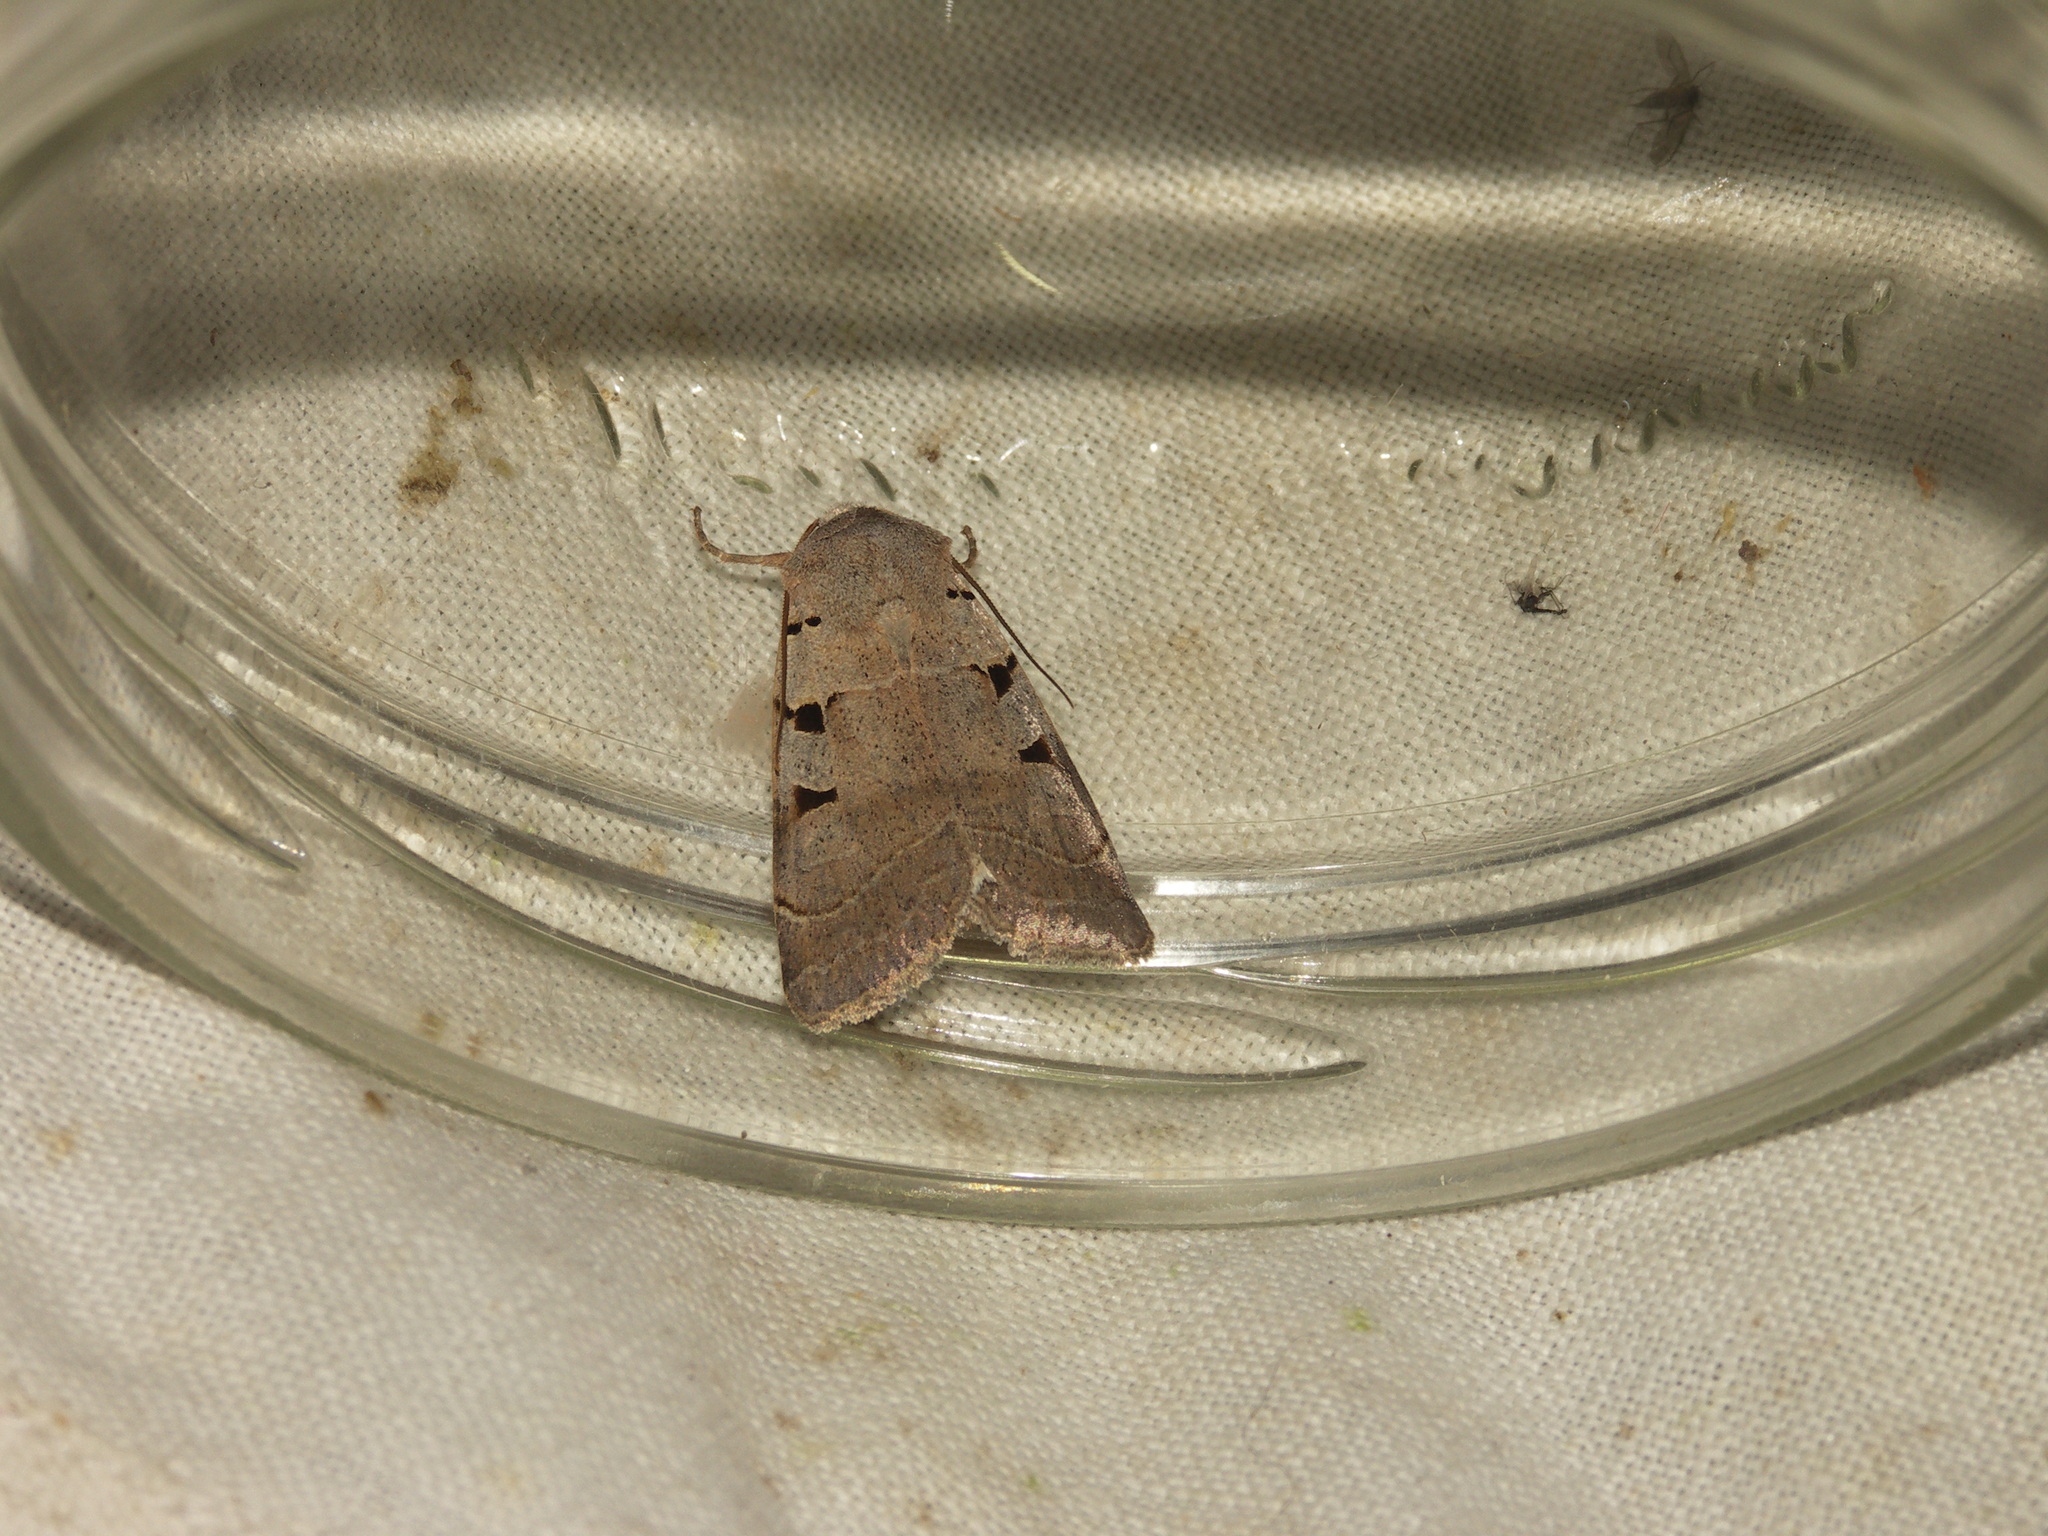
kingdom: Animalia
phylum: Arthropoda
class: Insecta
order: Lepidoptera
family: Noctuidae
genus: Eugnorisma
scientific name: Eugnorisma glareosa
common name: Autumnal rustic
